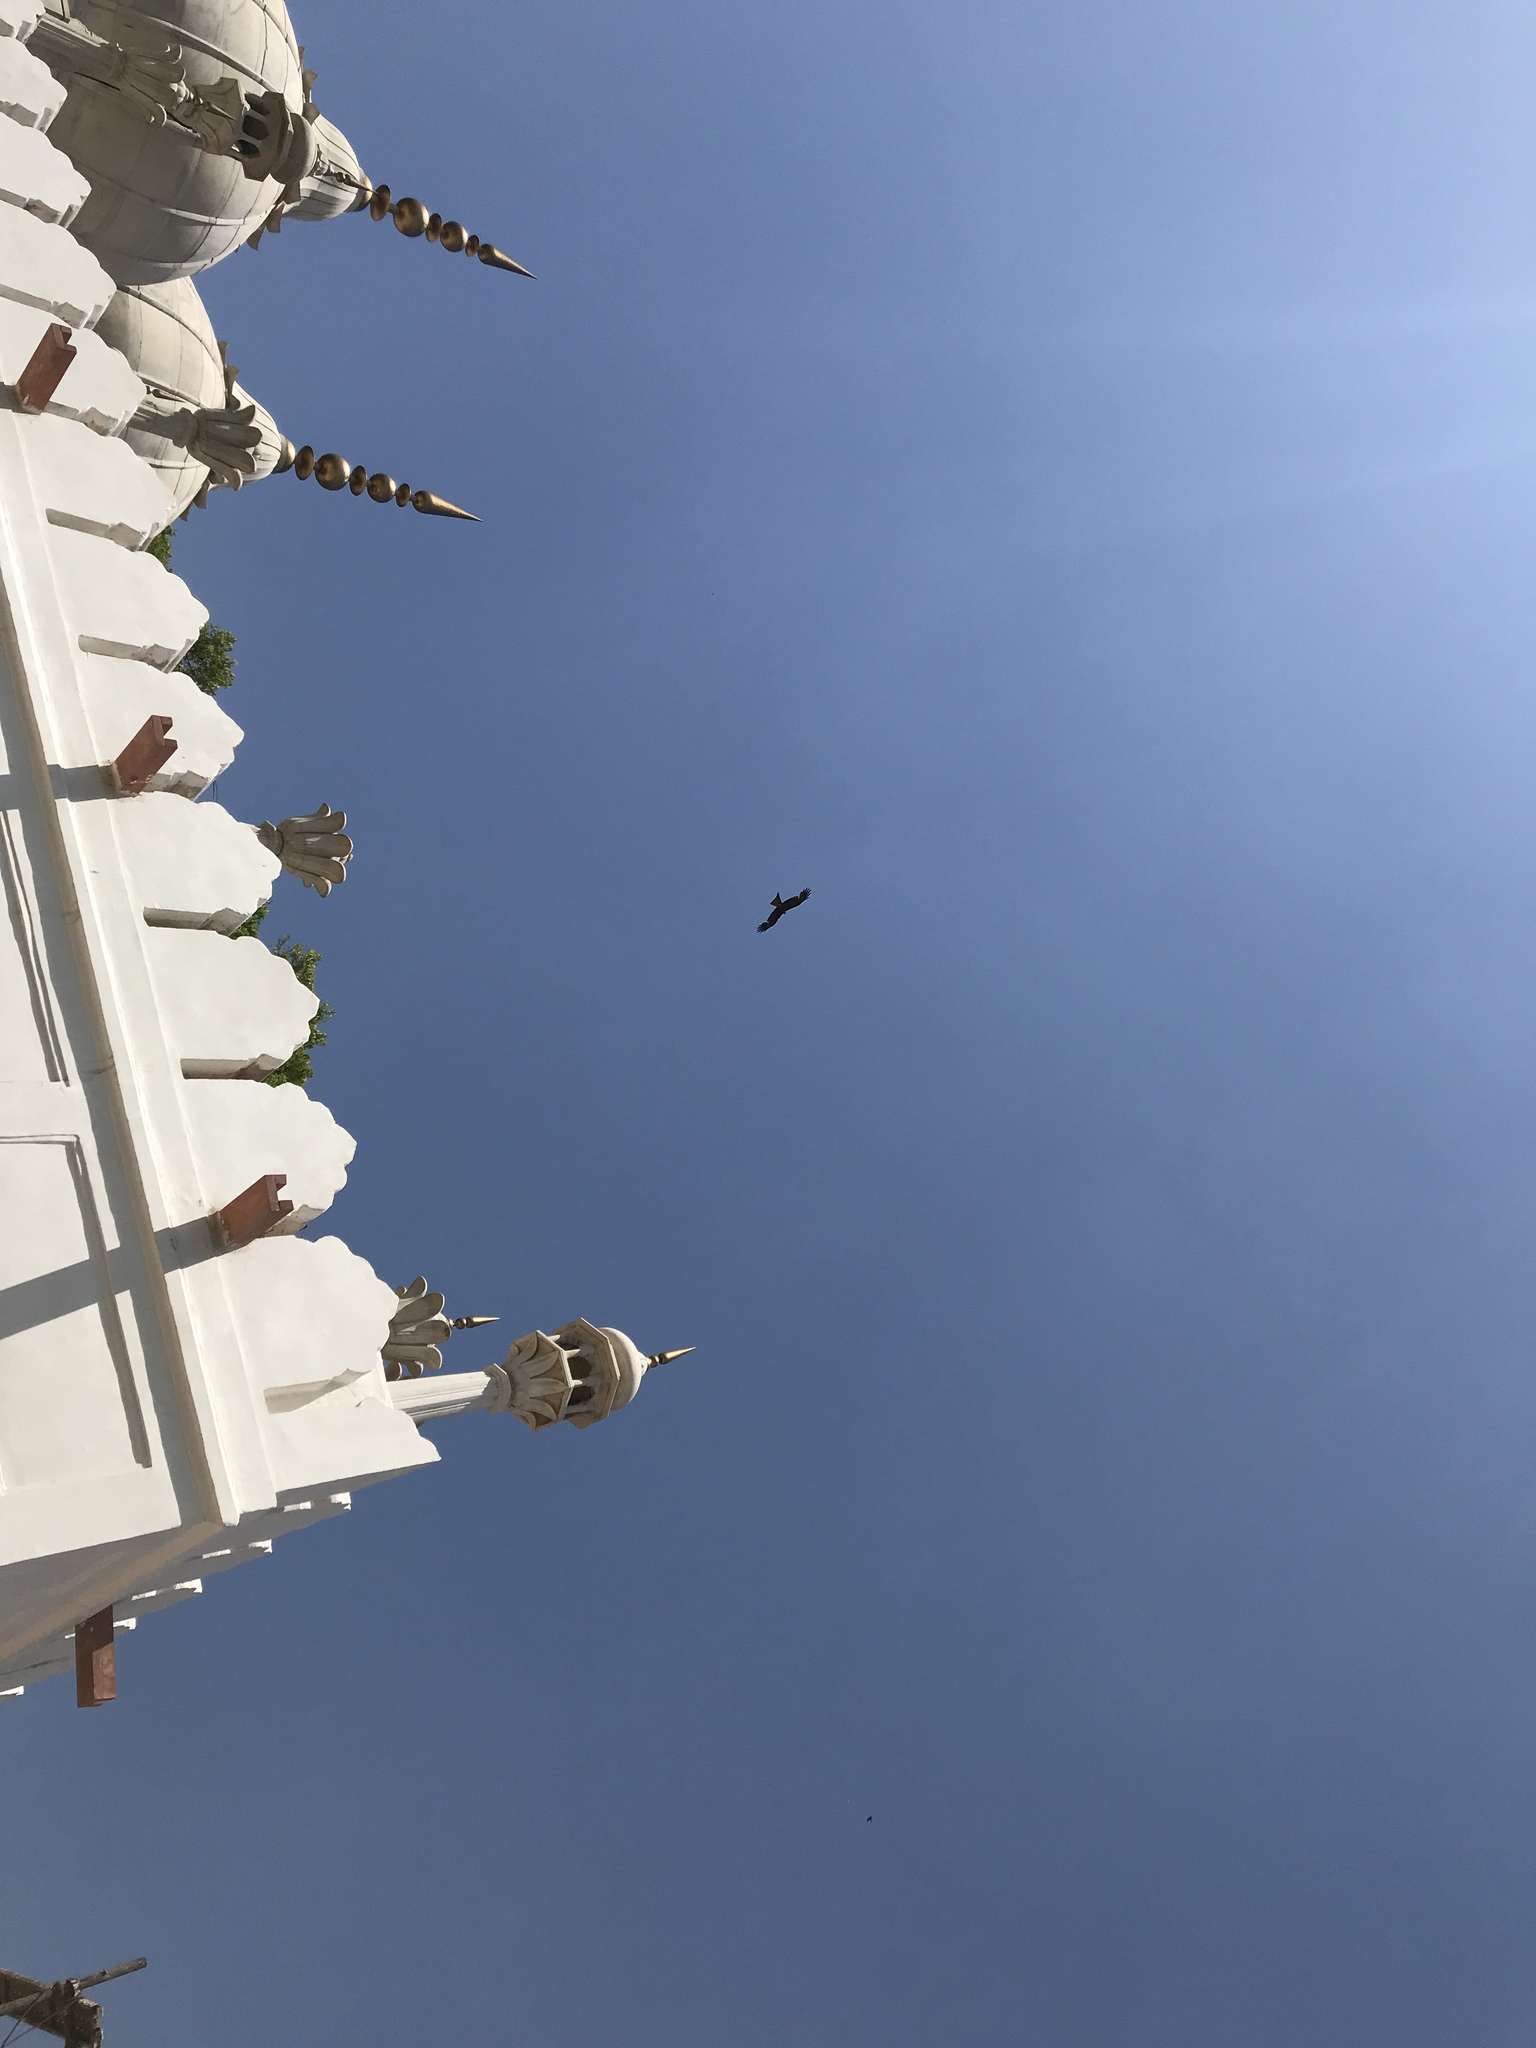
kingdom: Animalia
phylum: Chordata
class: Aves
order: Accipitriformes
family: Accipitridae
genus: Milvus
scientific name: Milvus migrans
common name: Black kite
